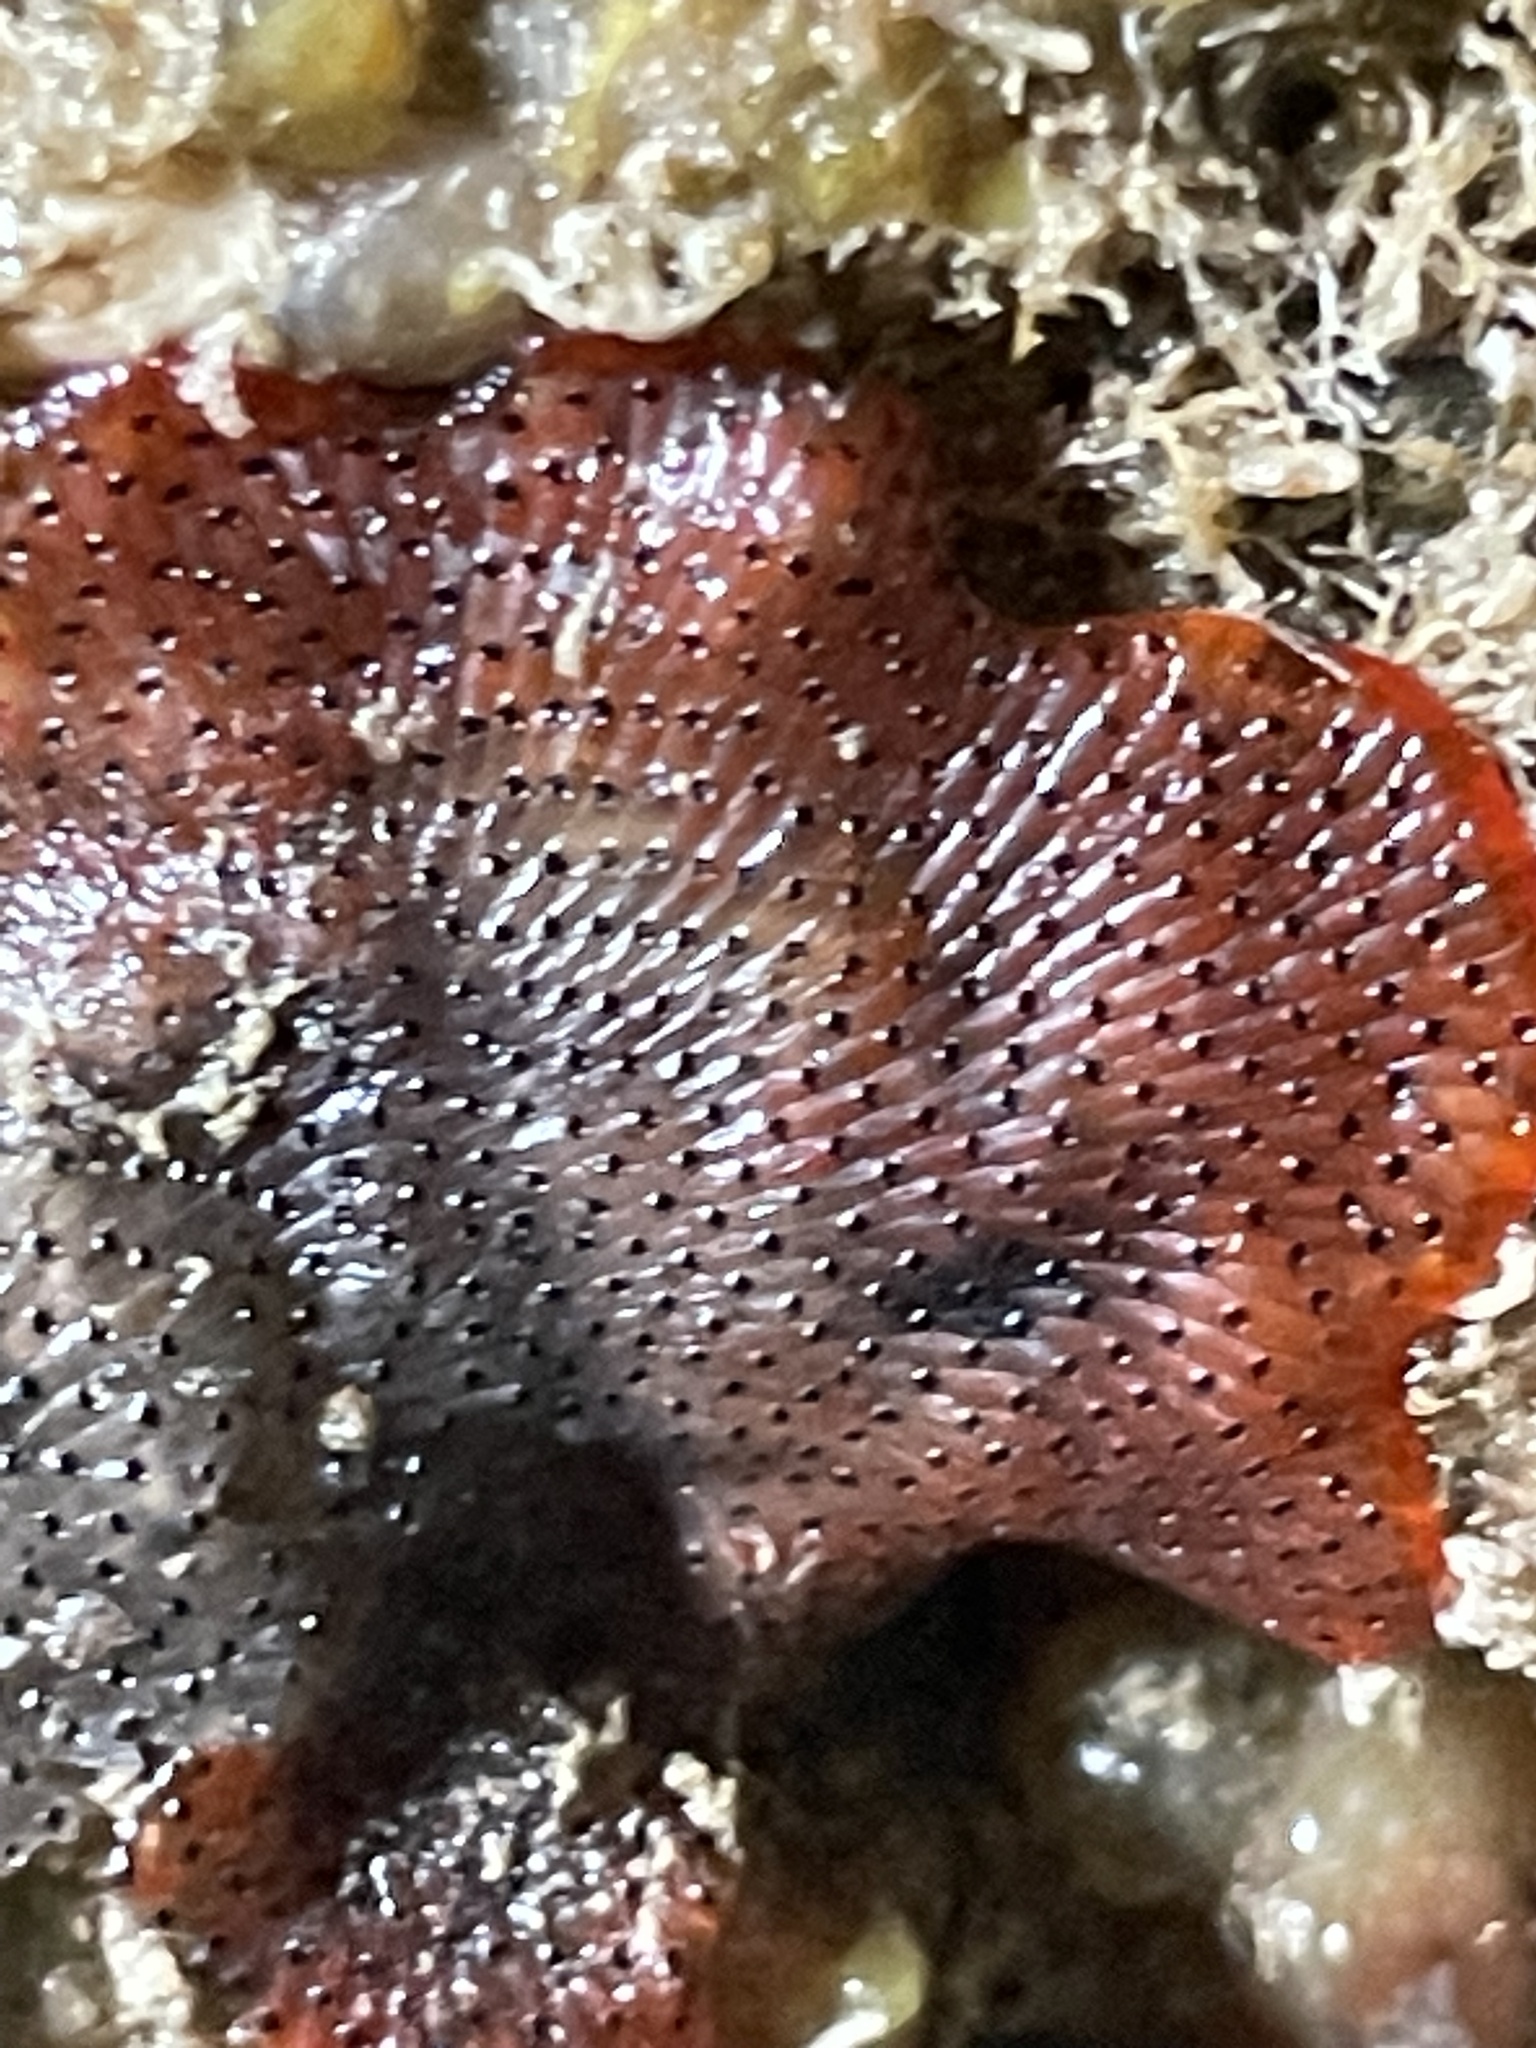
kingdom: Animalia
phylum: Bryozoa
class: Gymnolaemata
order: Cheilostomatida
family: Watersiporidae
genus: Watersipora
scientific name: Watersipora subatra
